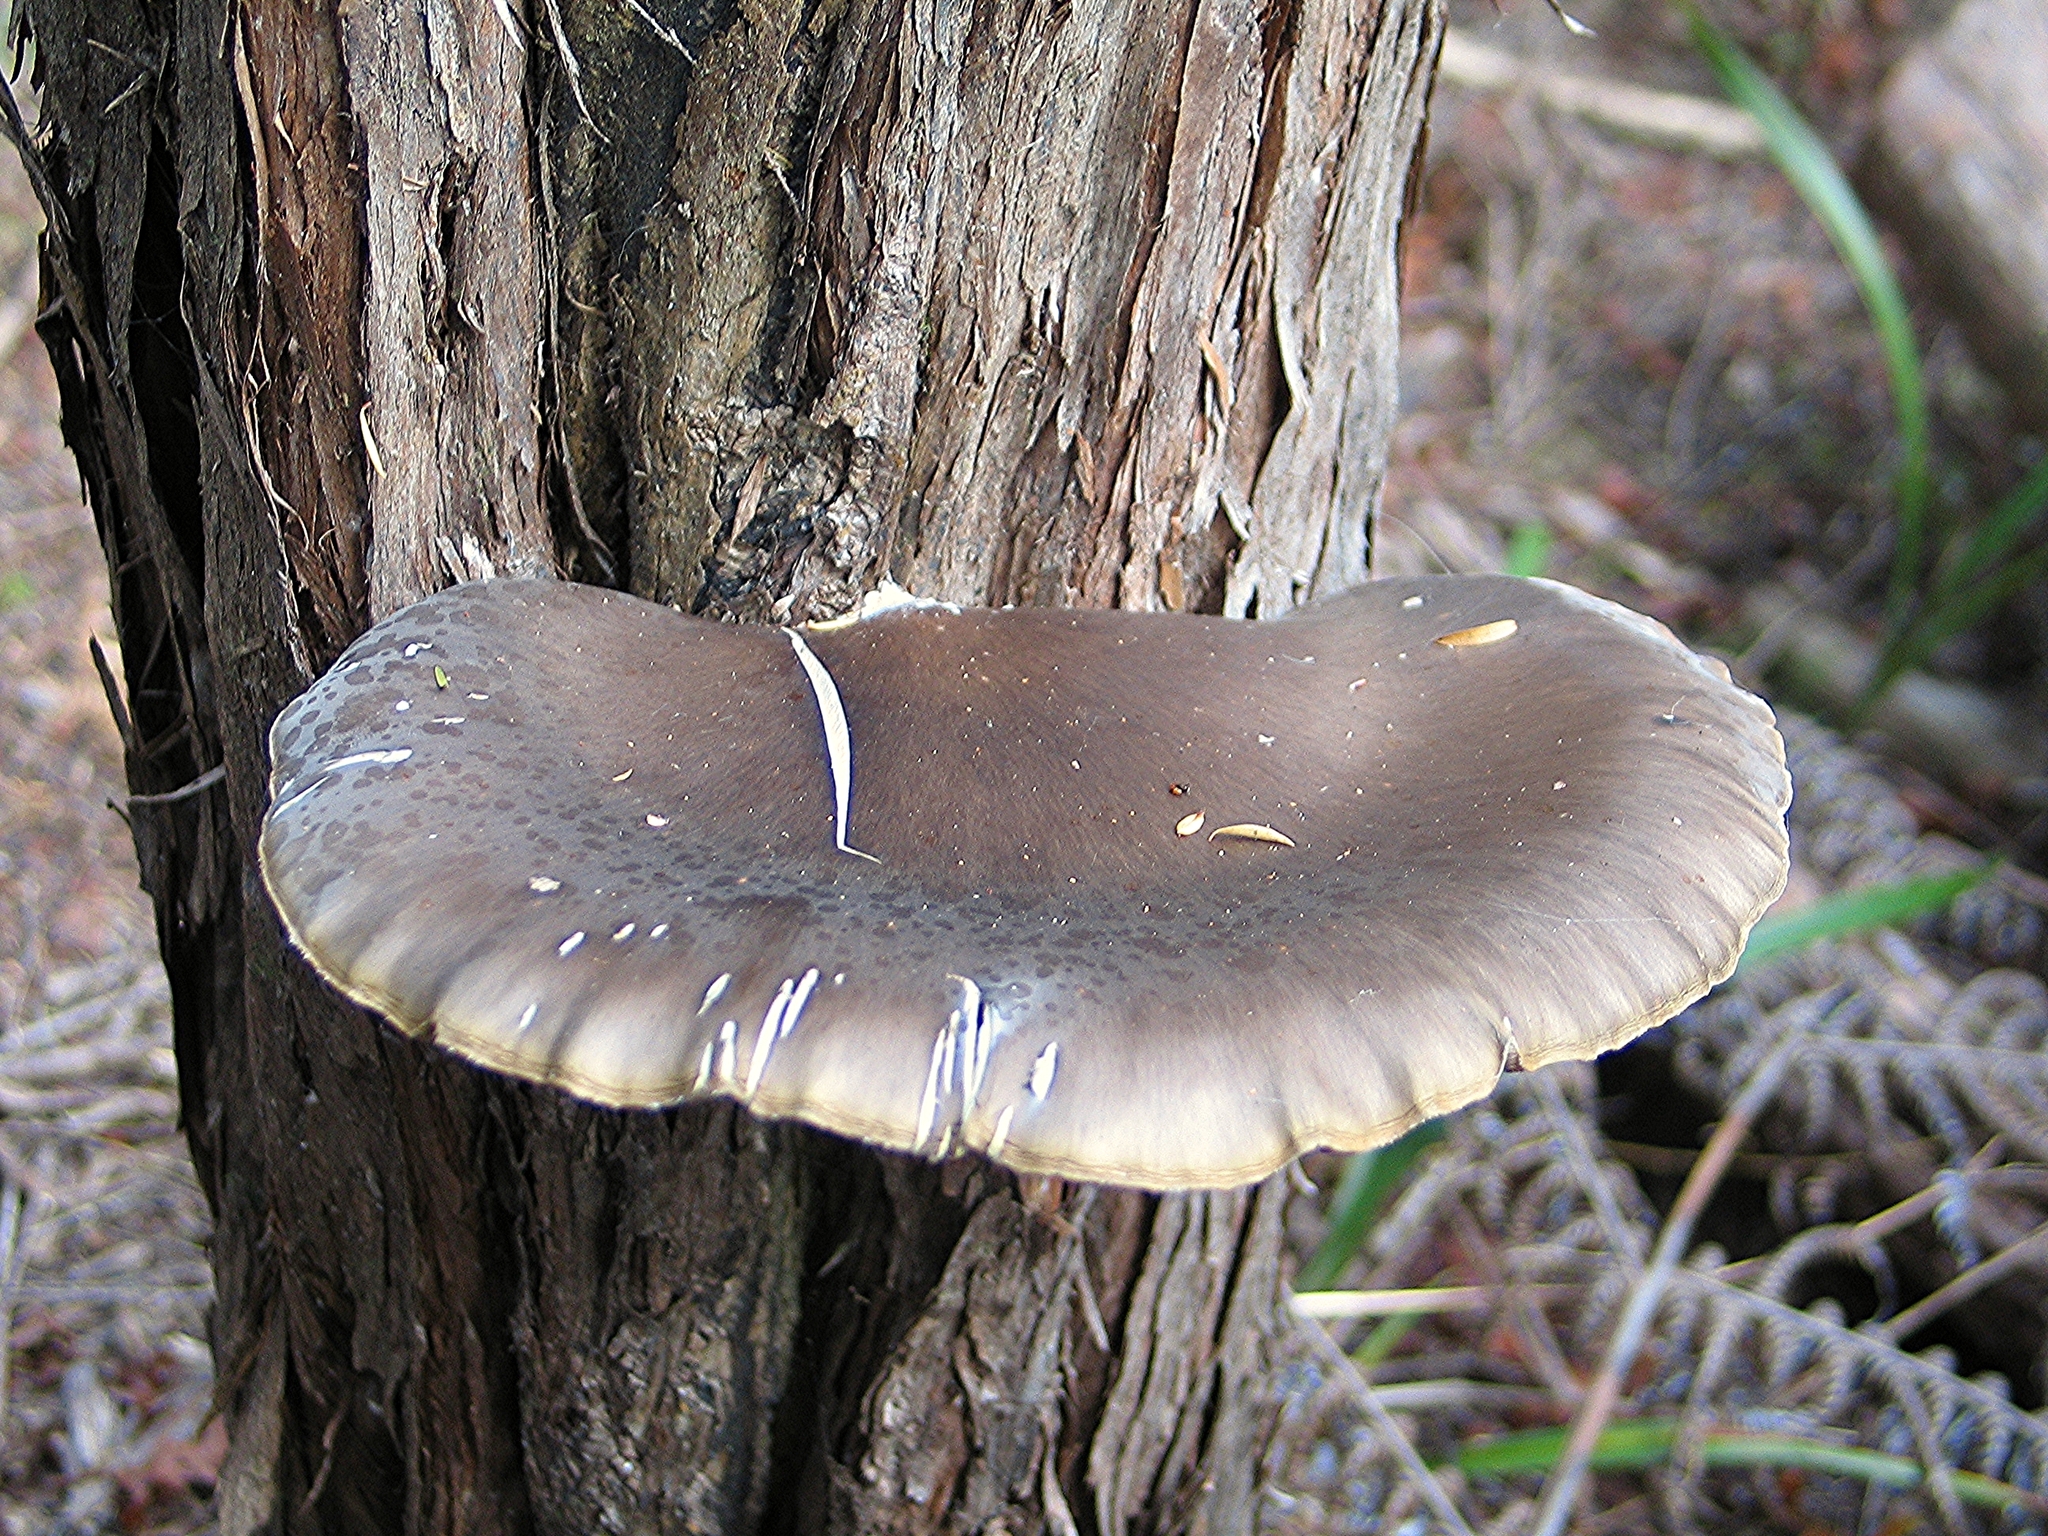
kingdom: Fungi
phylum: Basidiomycota
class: Agaricomycetes
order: Agaricales
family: Pleurotaceae
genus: Pleurotus
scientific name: Pleurotus australis
